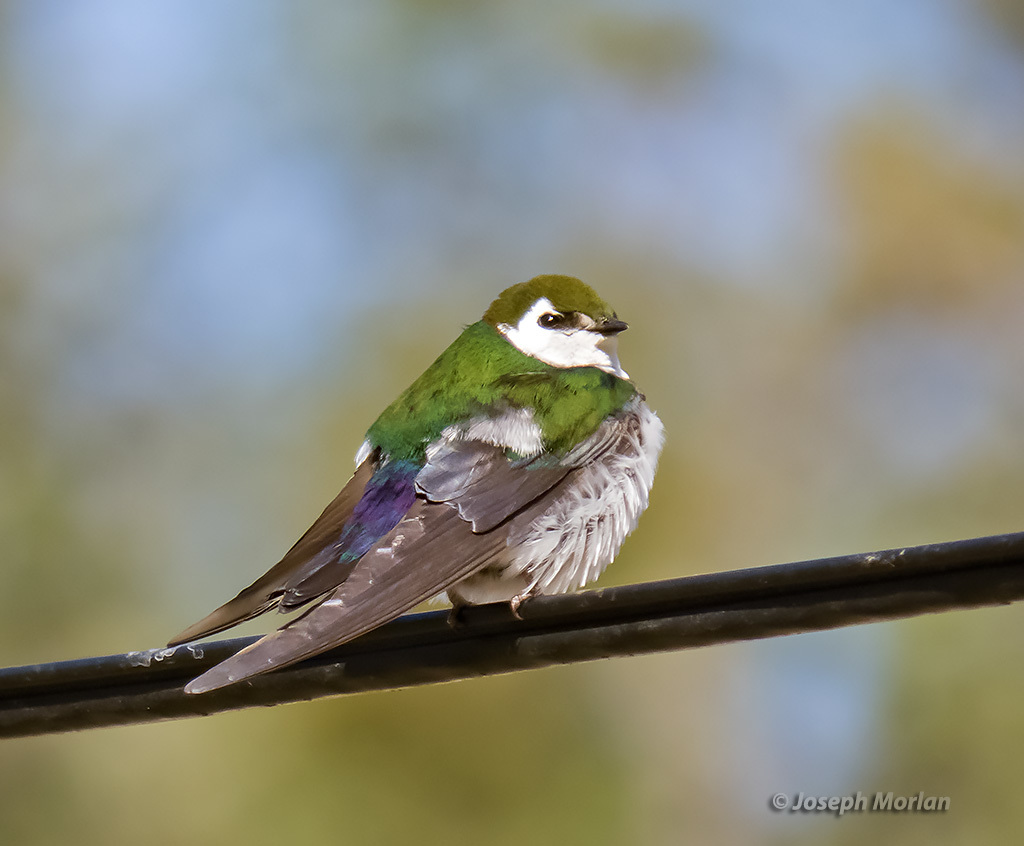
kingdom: Animalia
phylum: Chordata
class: Aves
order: Passeriformes
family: Hirundinidae
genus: Tachycineta
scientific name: Tachycineta thalassina
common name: Violet-green swallow
